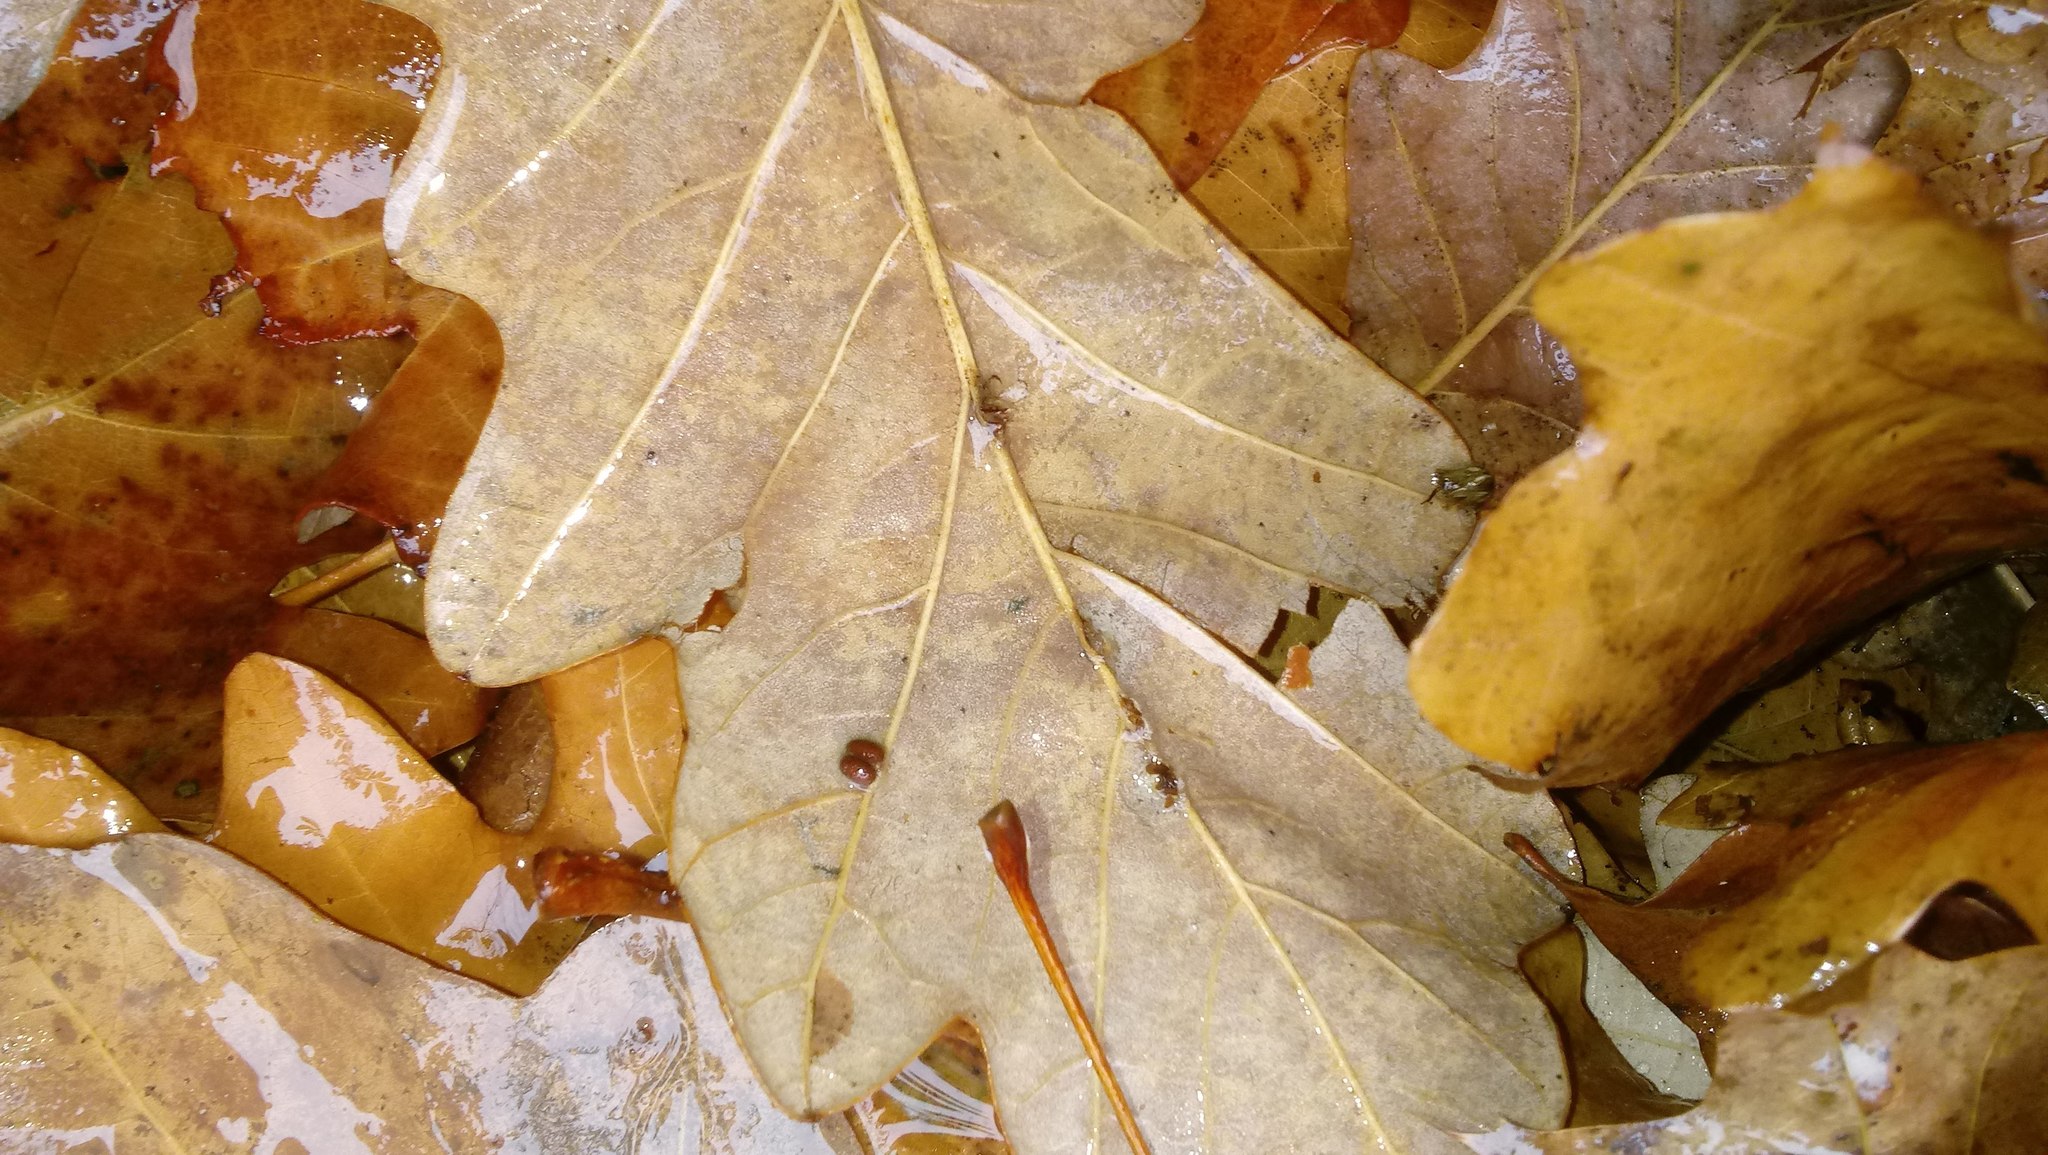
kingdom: Animalia
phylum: Arthropoda
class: Insecta
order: Hymenoptera
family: Cynipidae
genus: Andricus
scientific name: Andricus Druon ignotum
